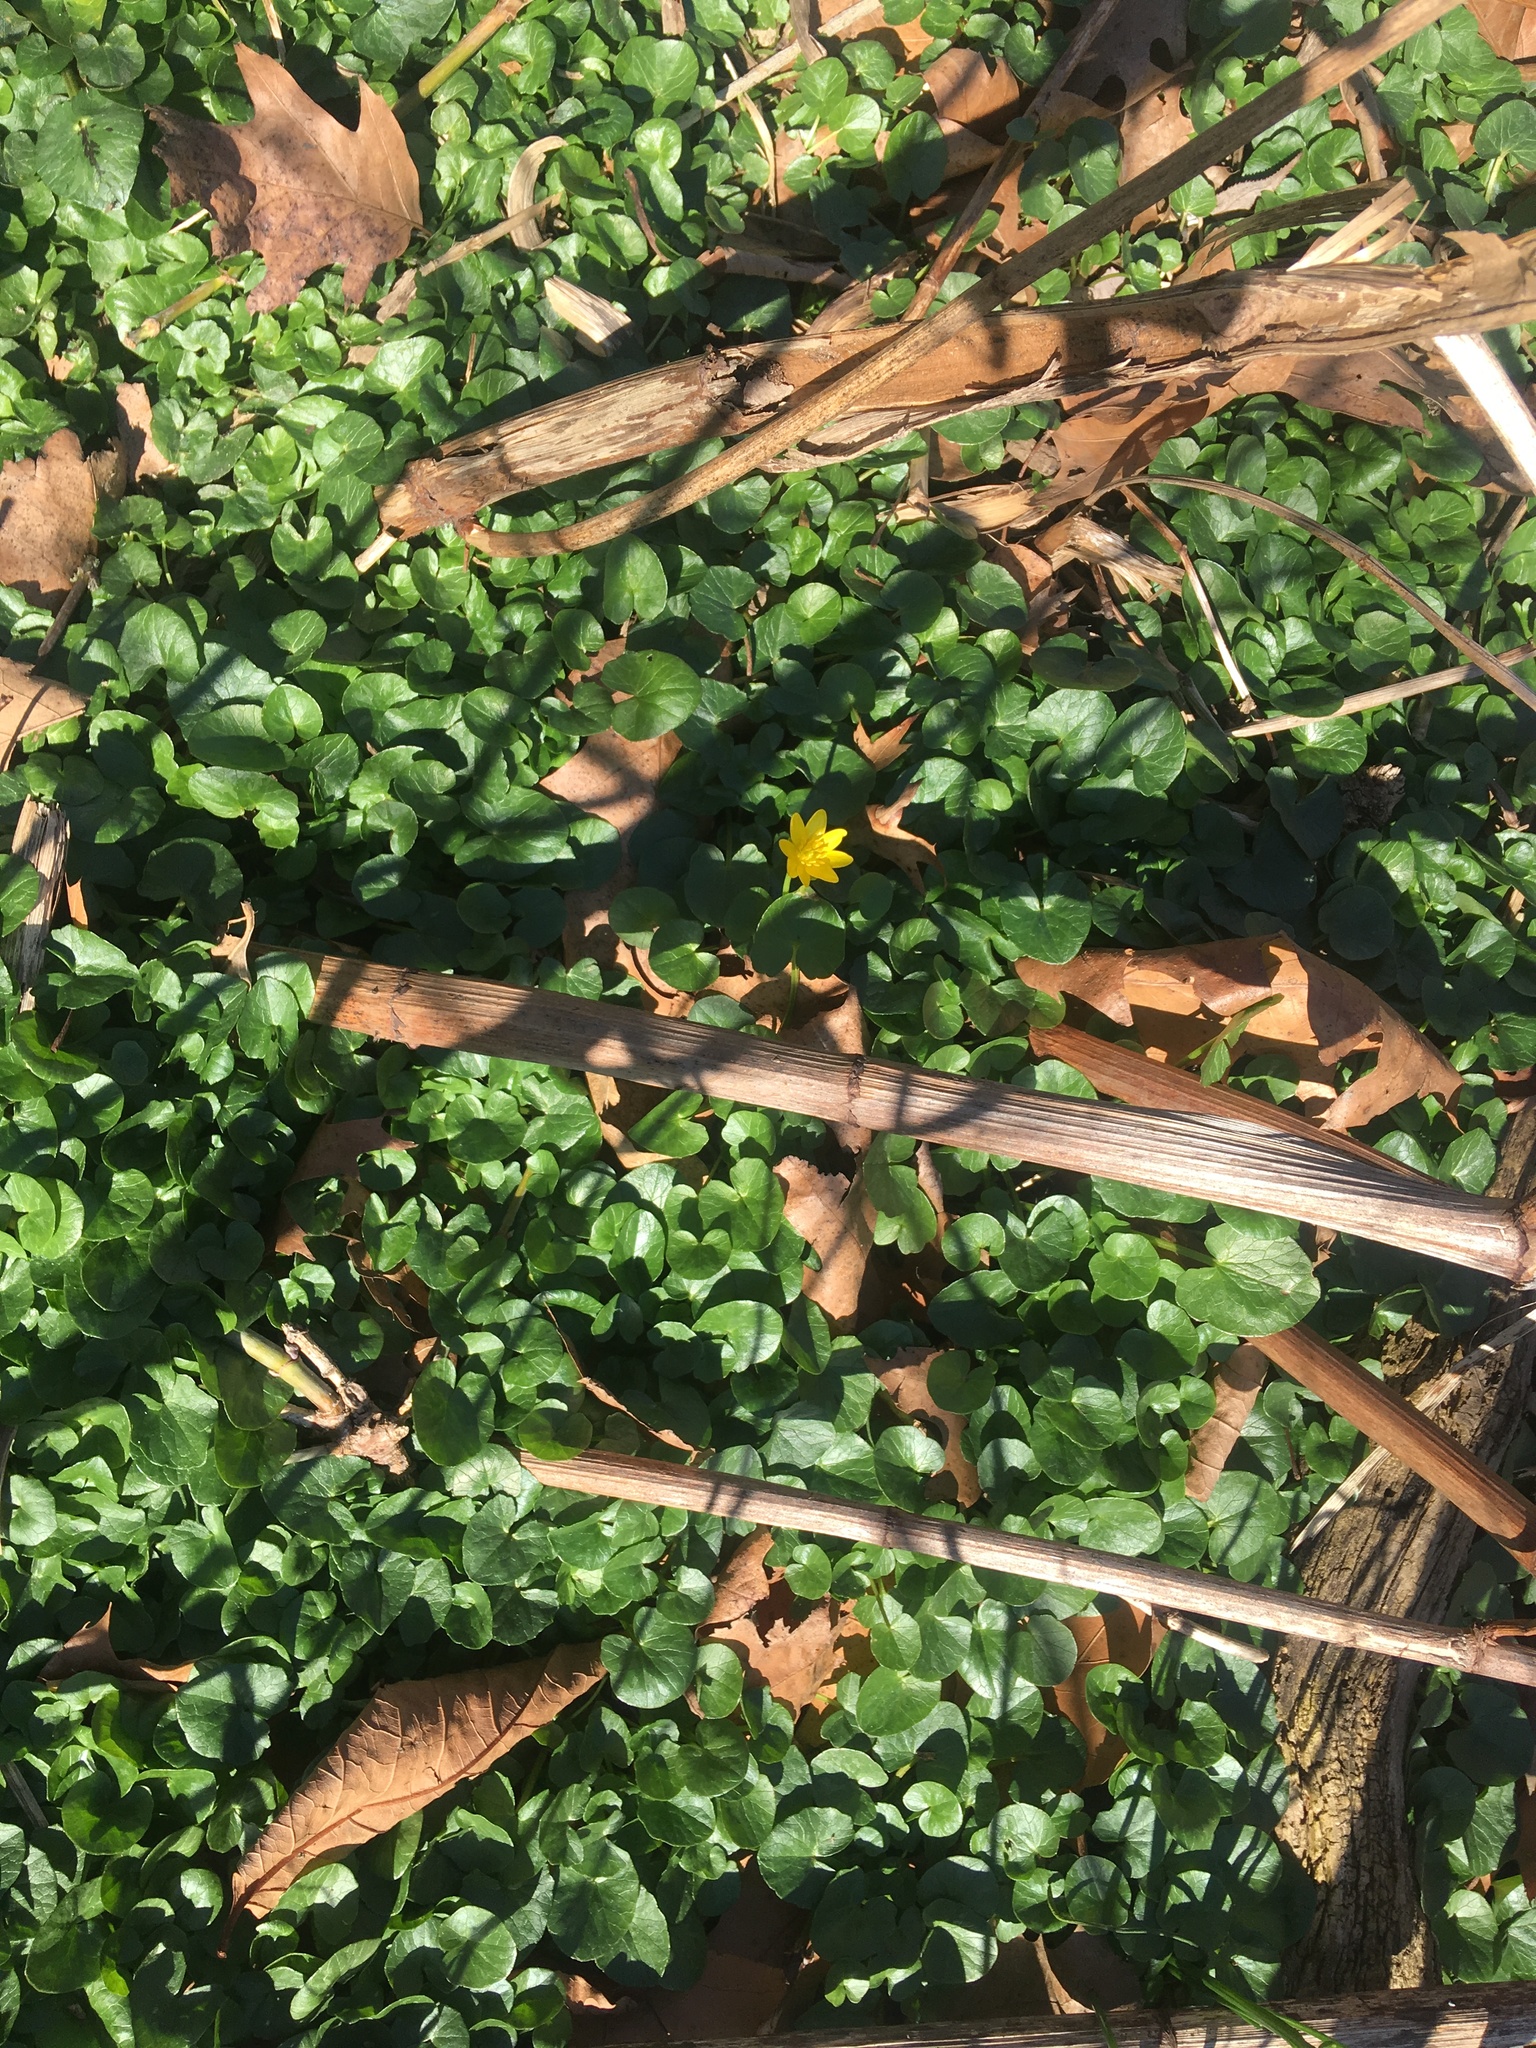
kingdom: Plantae
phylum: Tracheophyta
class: Magnoliopsida
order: Ranunculales
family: Ranunculaceae
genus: Ficaria
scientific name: Ficaria verna
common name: Lesser celandine
